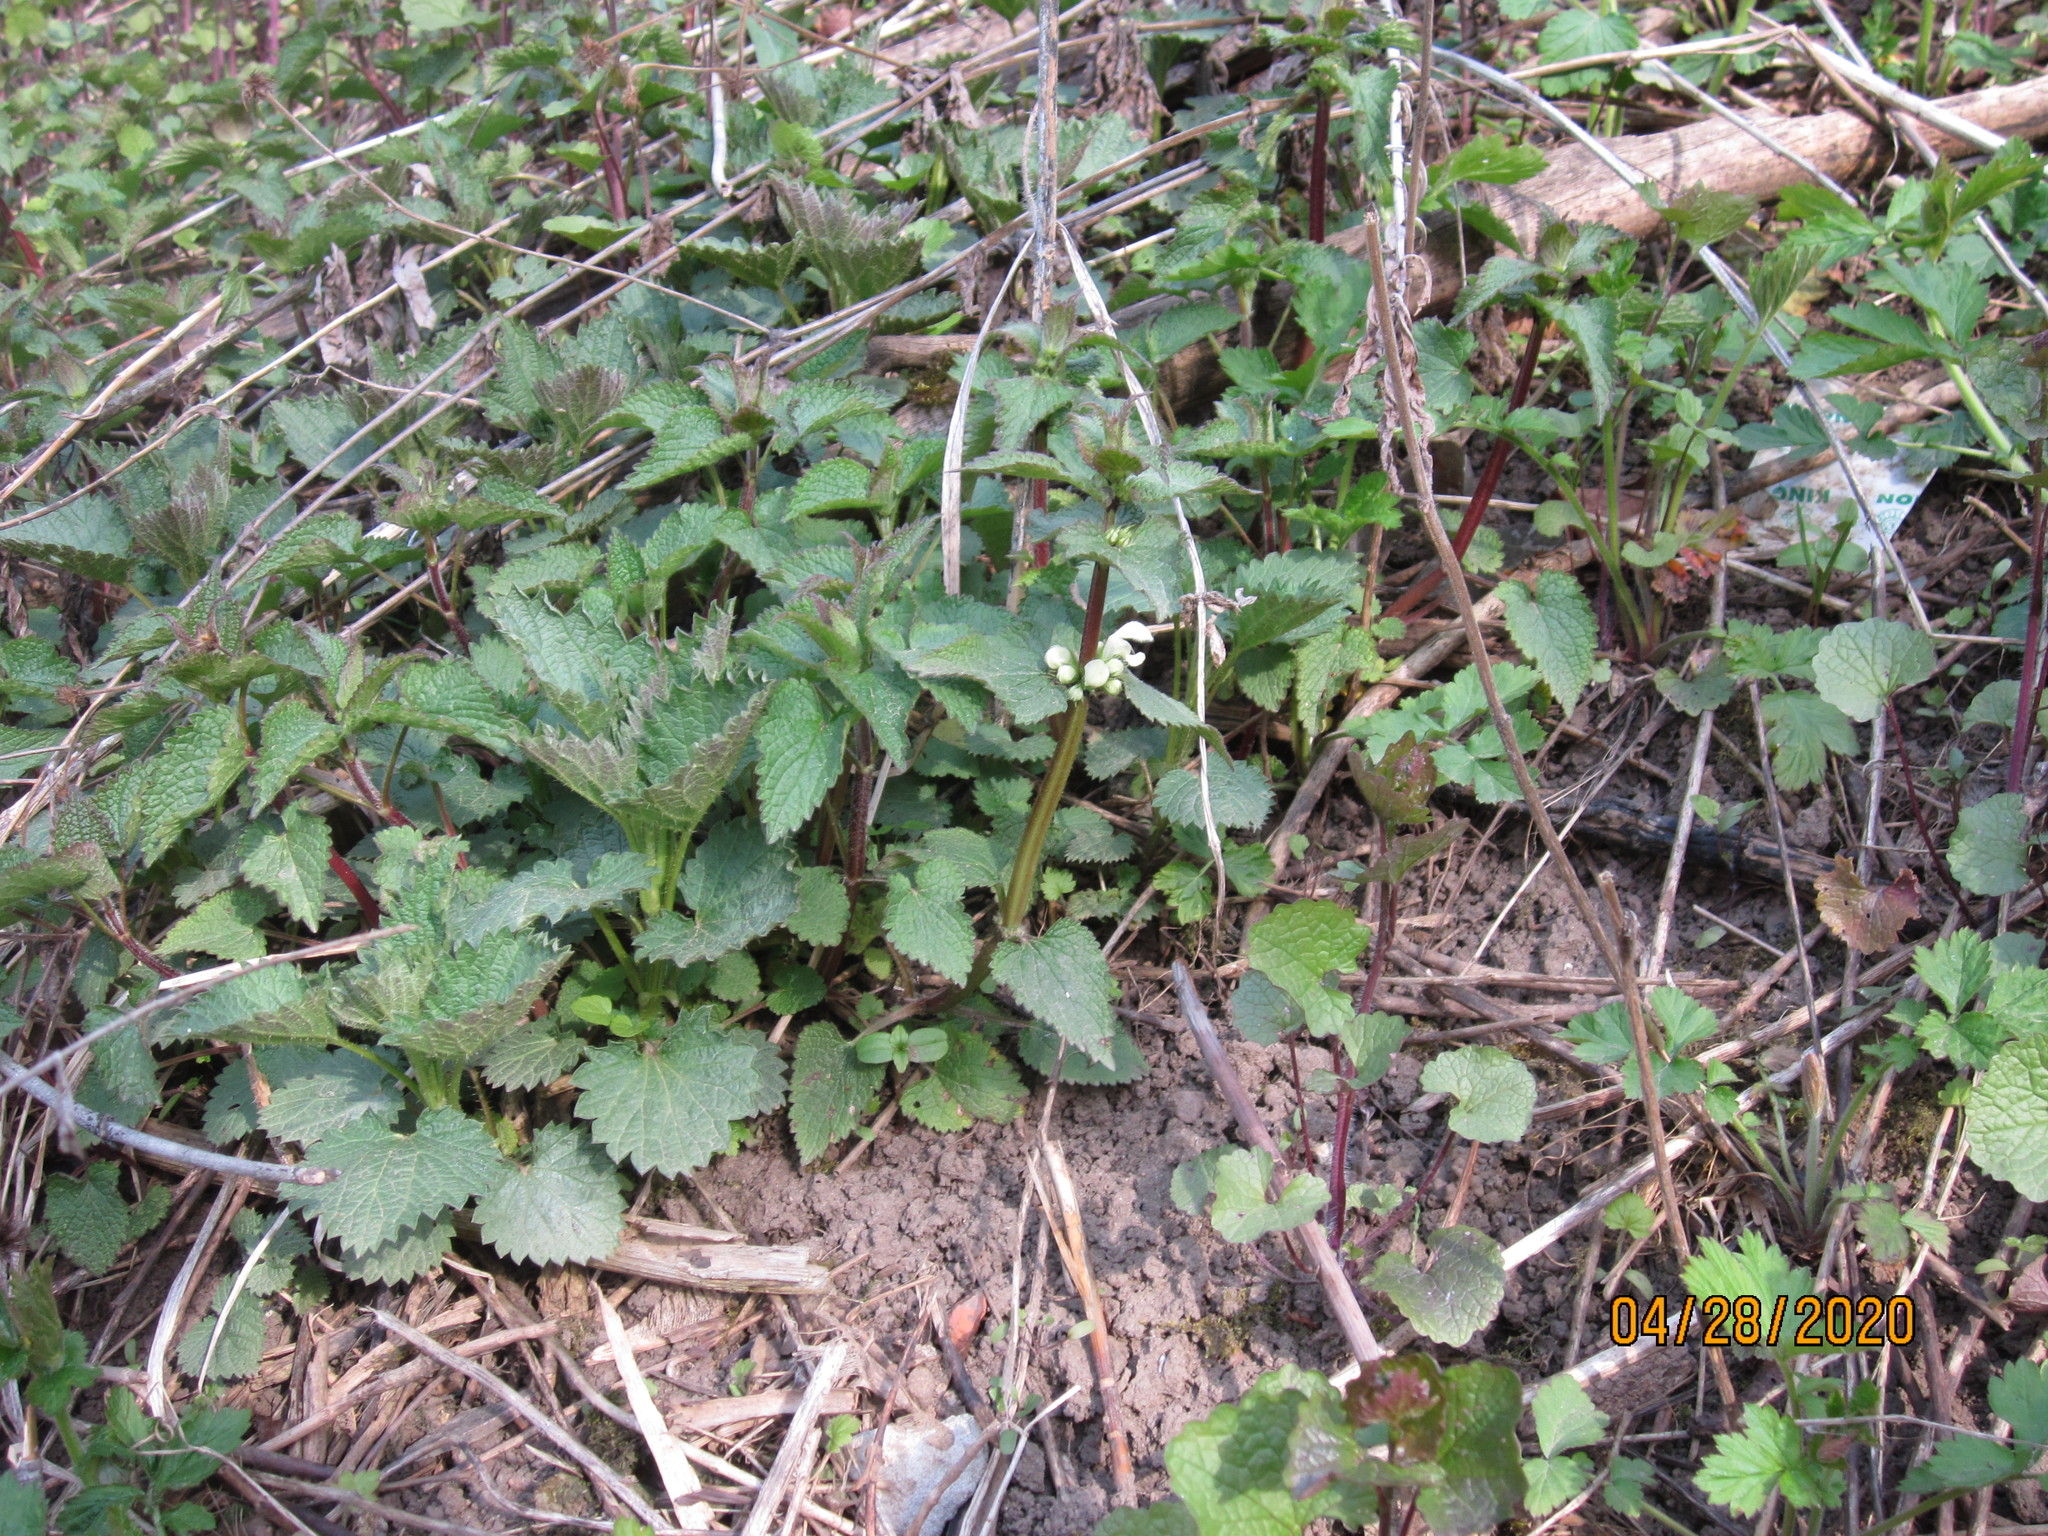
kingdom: Plantae
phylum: Tracheophyta
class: Magnoliopsida
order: Lamiales
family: Lamiaceae
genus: Lamium
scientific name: Lamium album
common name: White dead-nettle
